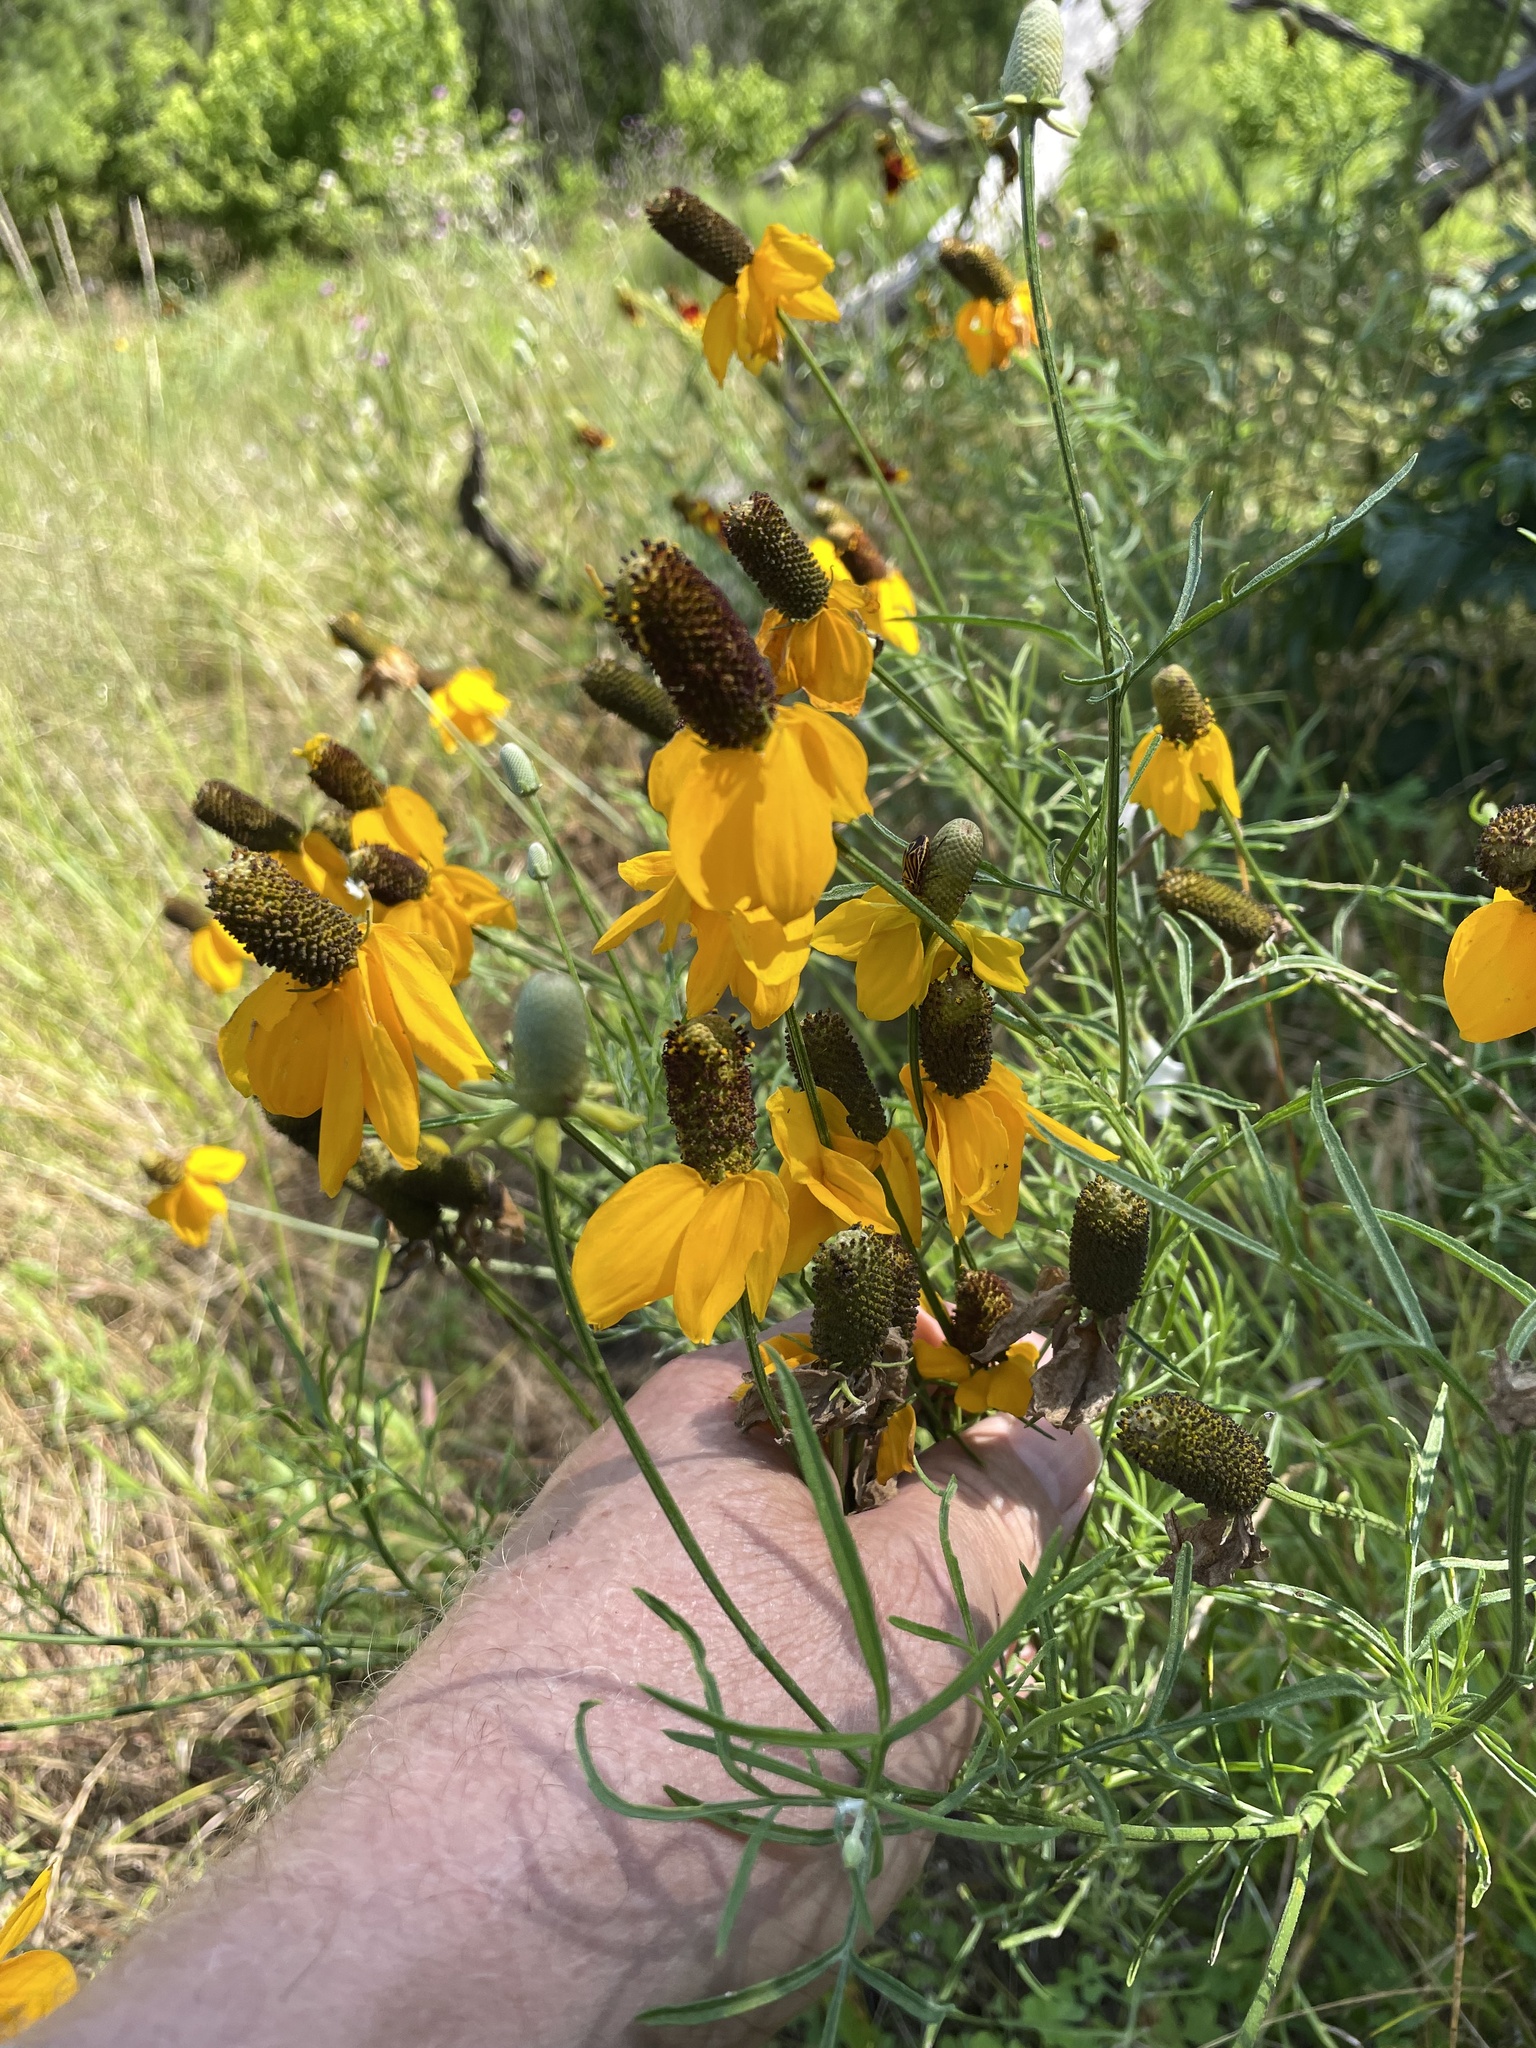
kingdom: Plantae
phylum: Tracheophyta
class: Magnoliopsida
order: Asterales
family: Asteraceae
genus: Ratibida
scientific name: Ratibida columnifera
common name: Prairie coneflower
